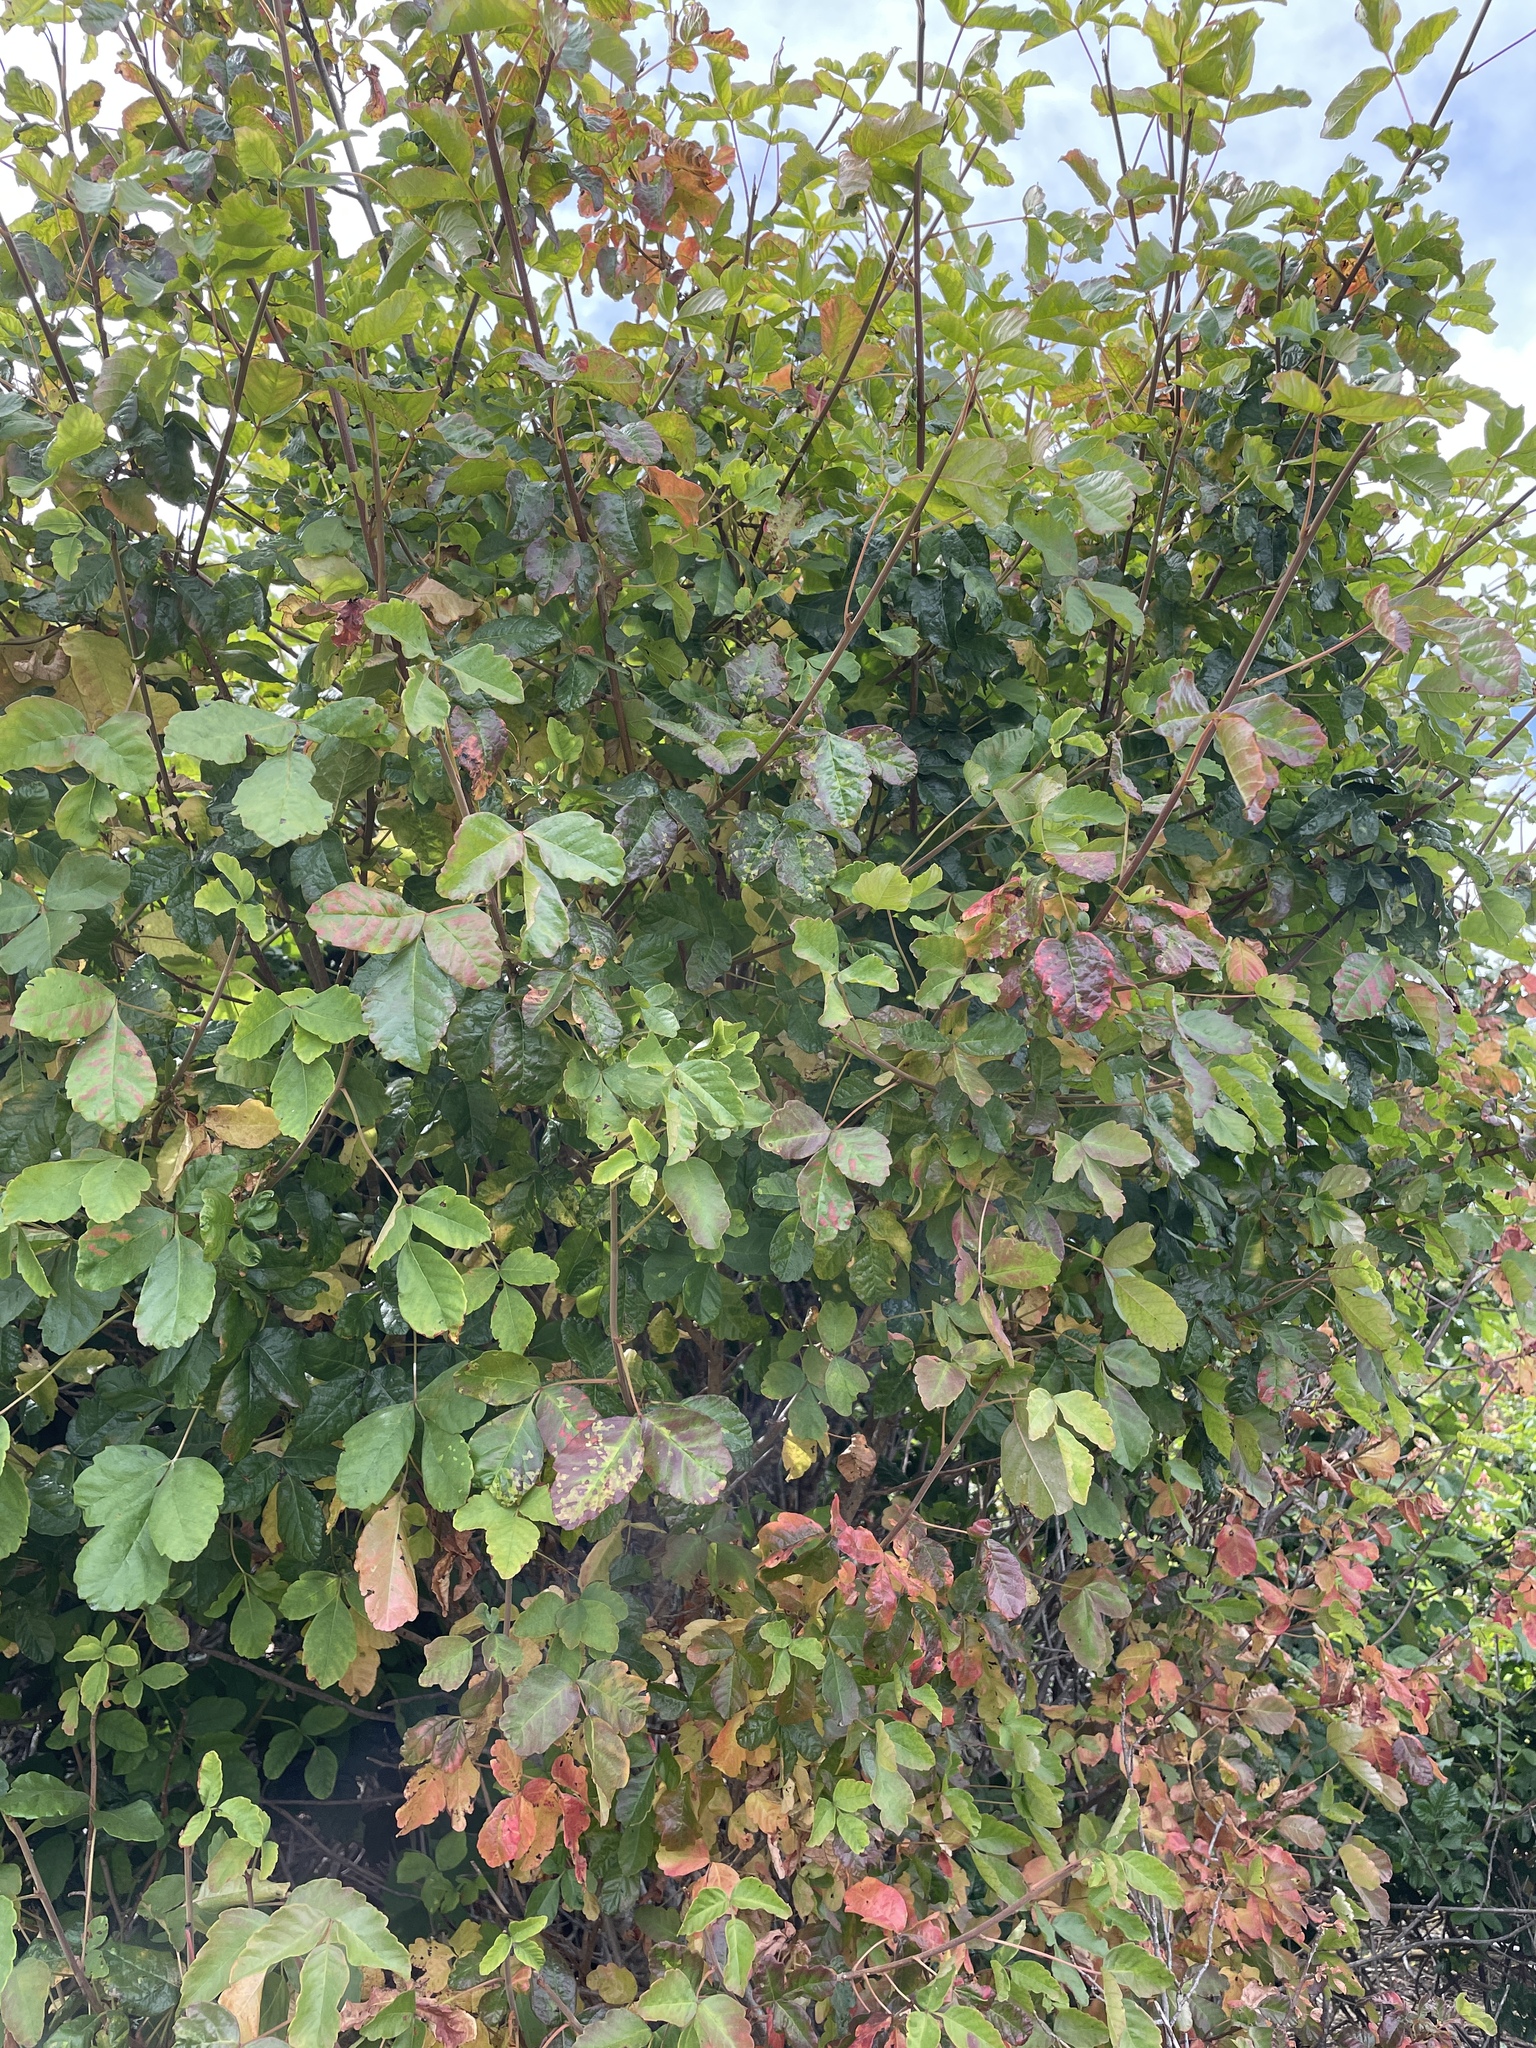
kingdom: Plantae
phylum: Tracheophyta
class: Magnoliopsida
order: Sapindales
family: Anacardiaceae
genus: Toxicodendron
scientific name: Toxicodendron diversilobum
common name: Pacific poison-oak
